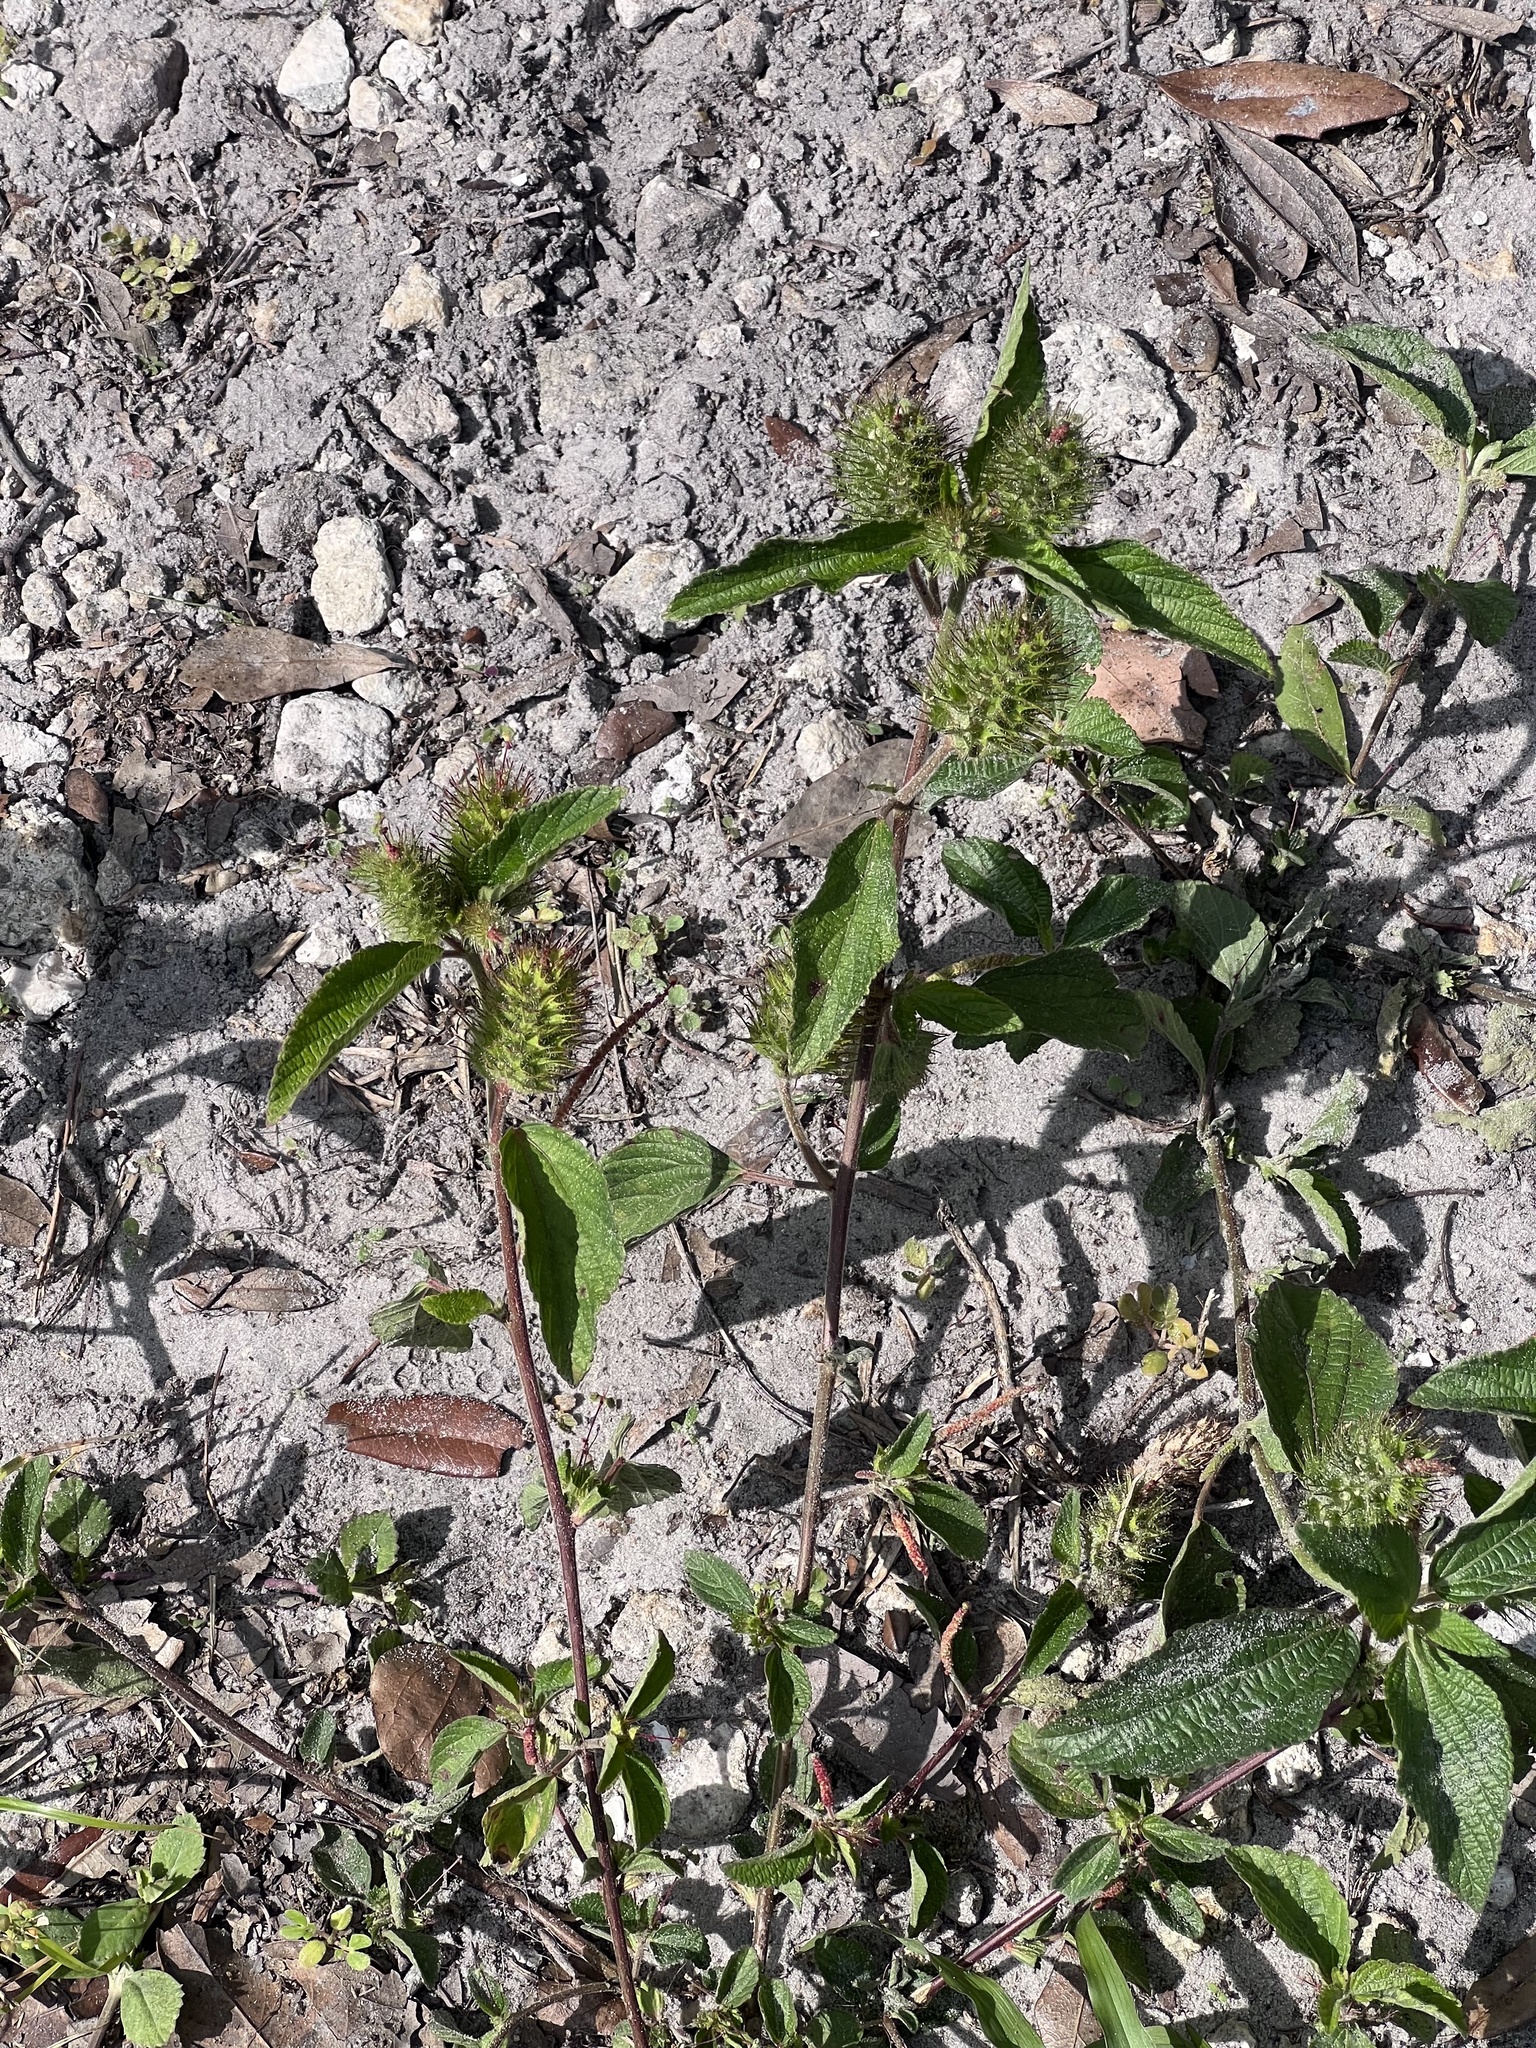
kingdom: Plantae
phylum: Tracheophyta
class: Magnoliopsida
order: Malpighiales
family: Euphorbiaceae
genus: Acalypha
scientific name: Acalypha arvensis
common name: Field copperleaf
